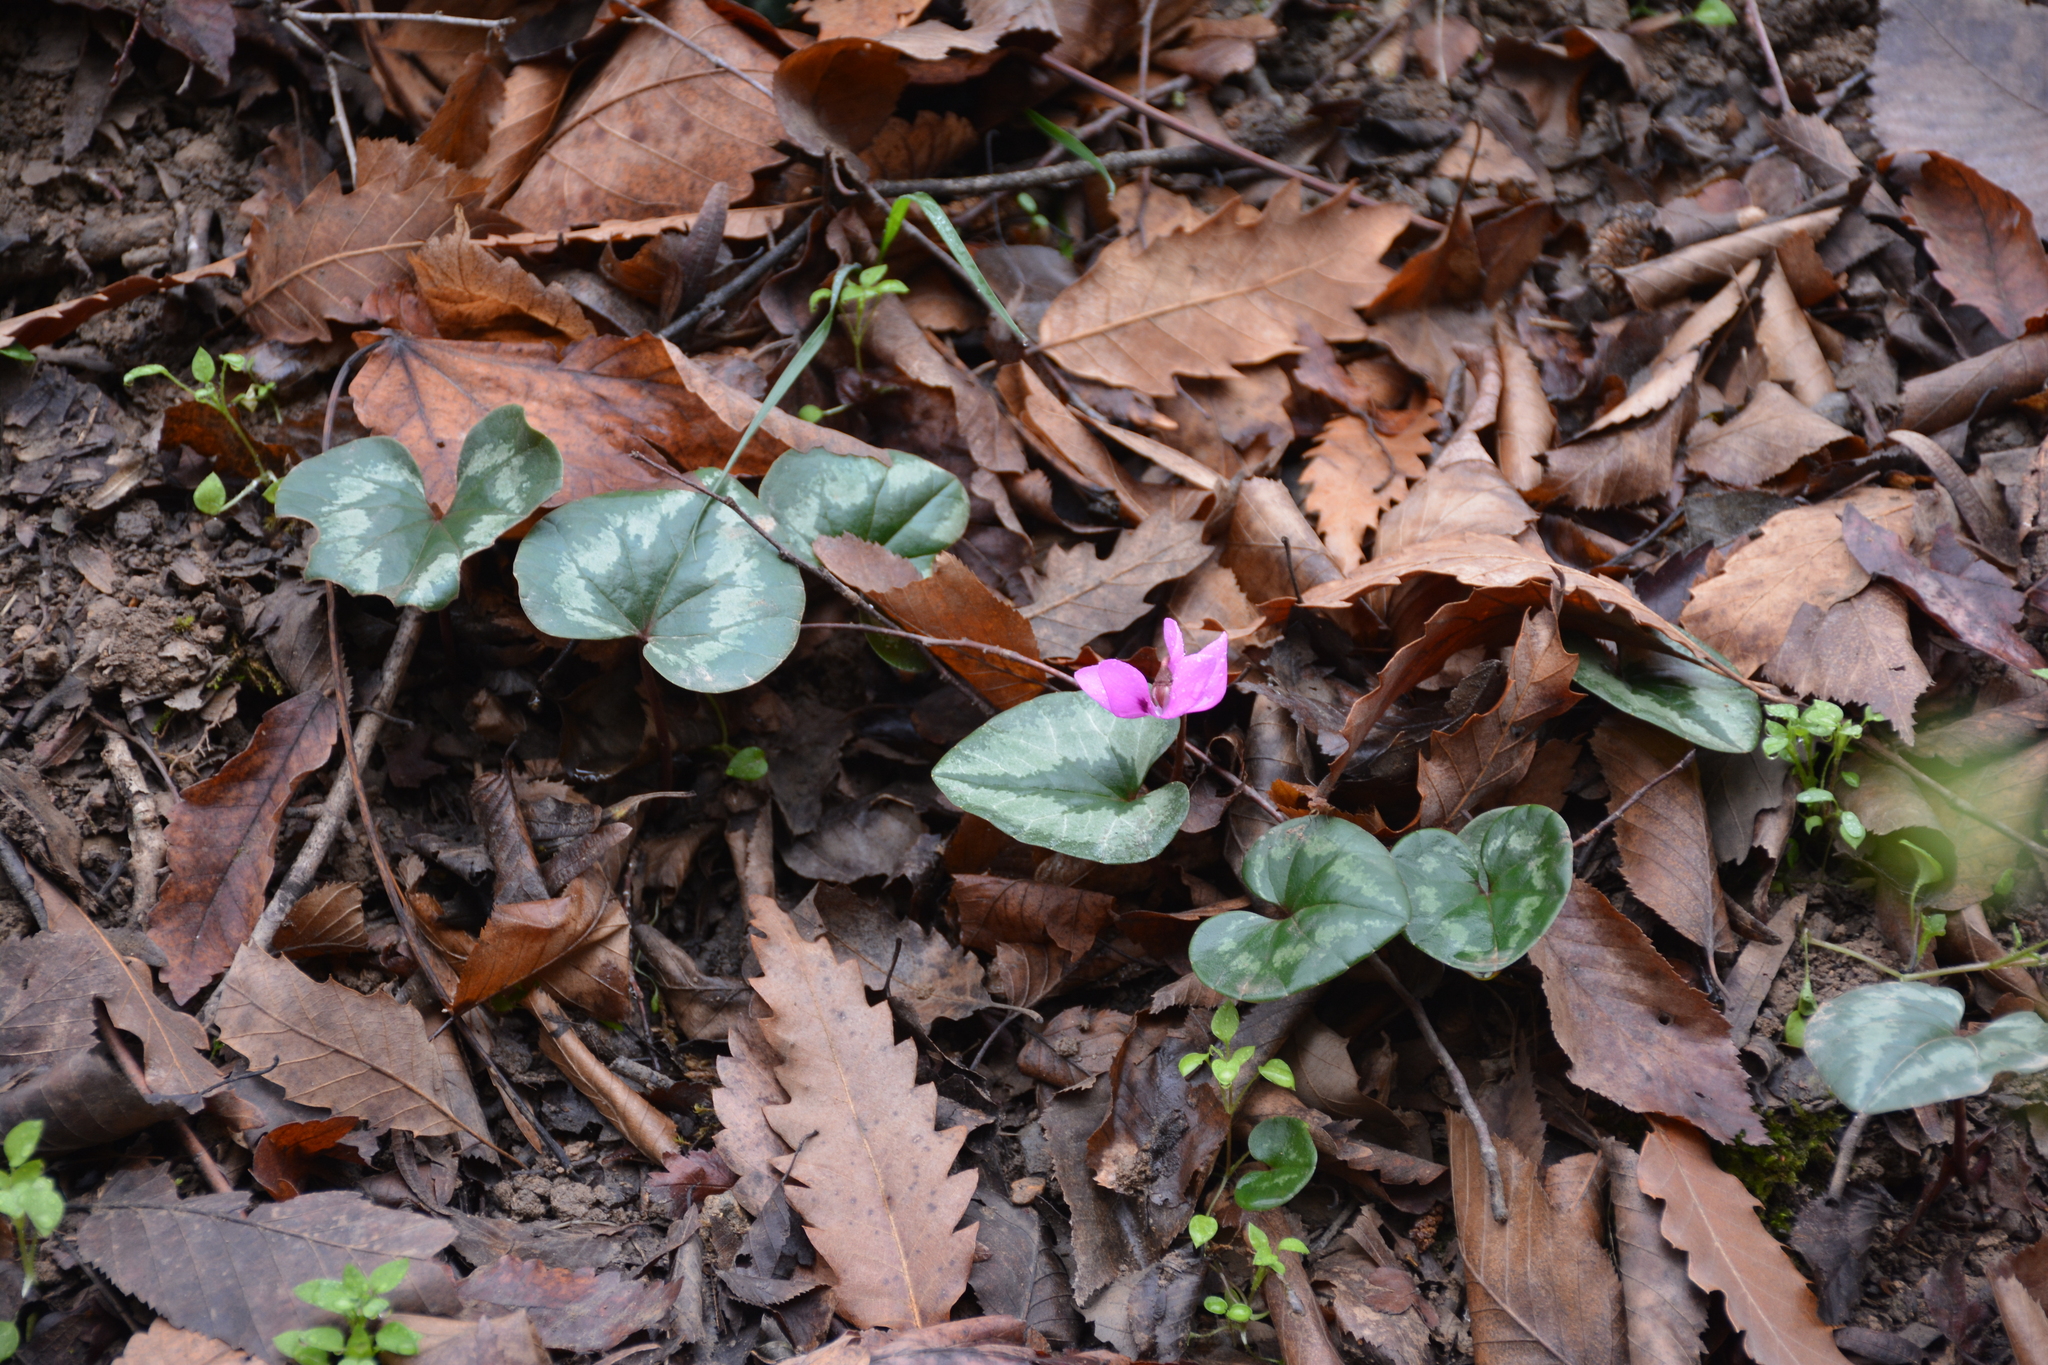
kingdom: Plantae
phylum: Tracheophyta
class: Magnoliopsida
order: Ericales
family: Primulaceae
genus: Cyclamen
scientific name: Cyclamen coum
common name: Eastern sowbread
